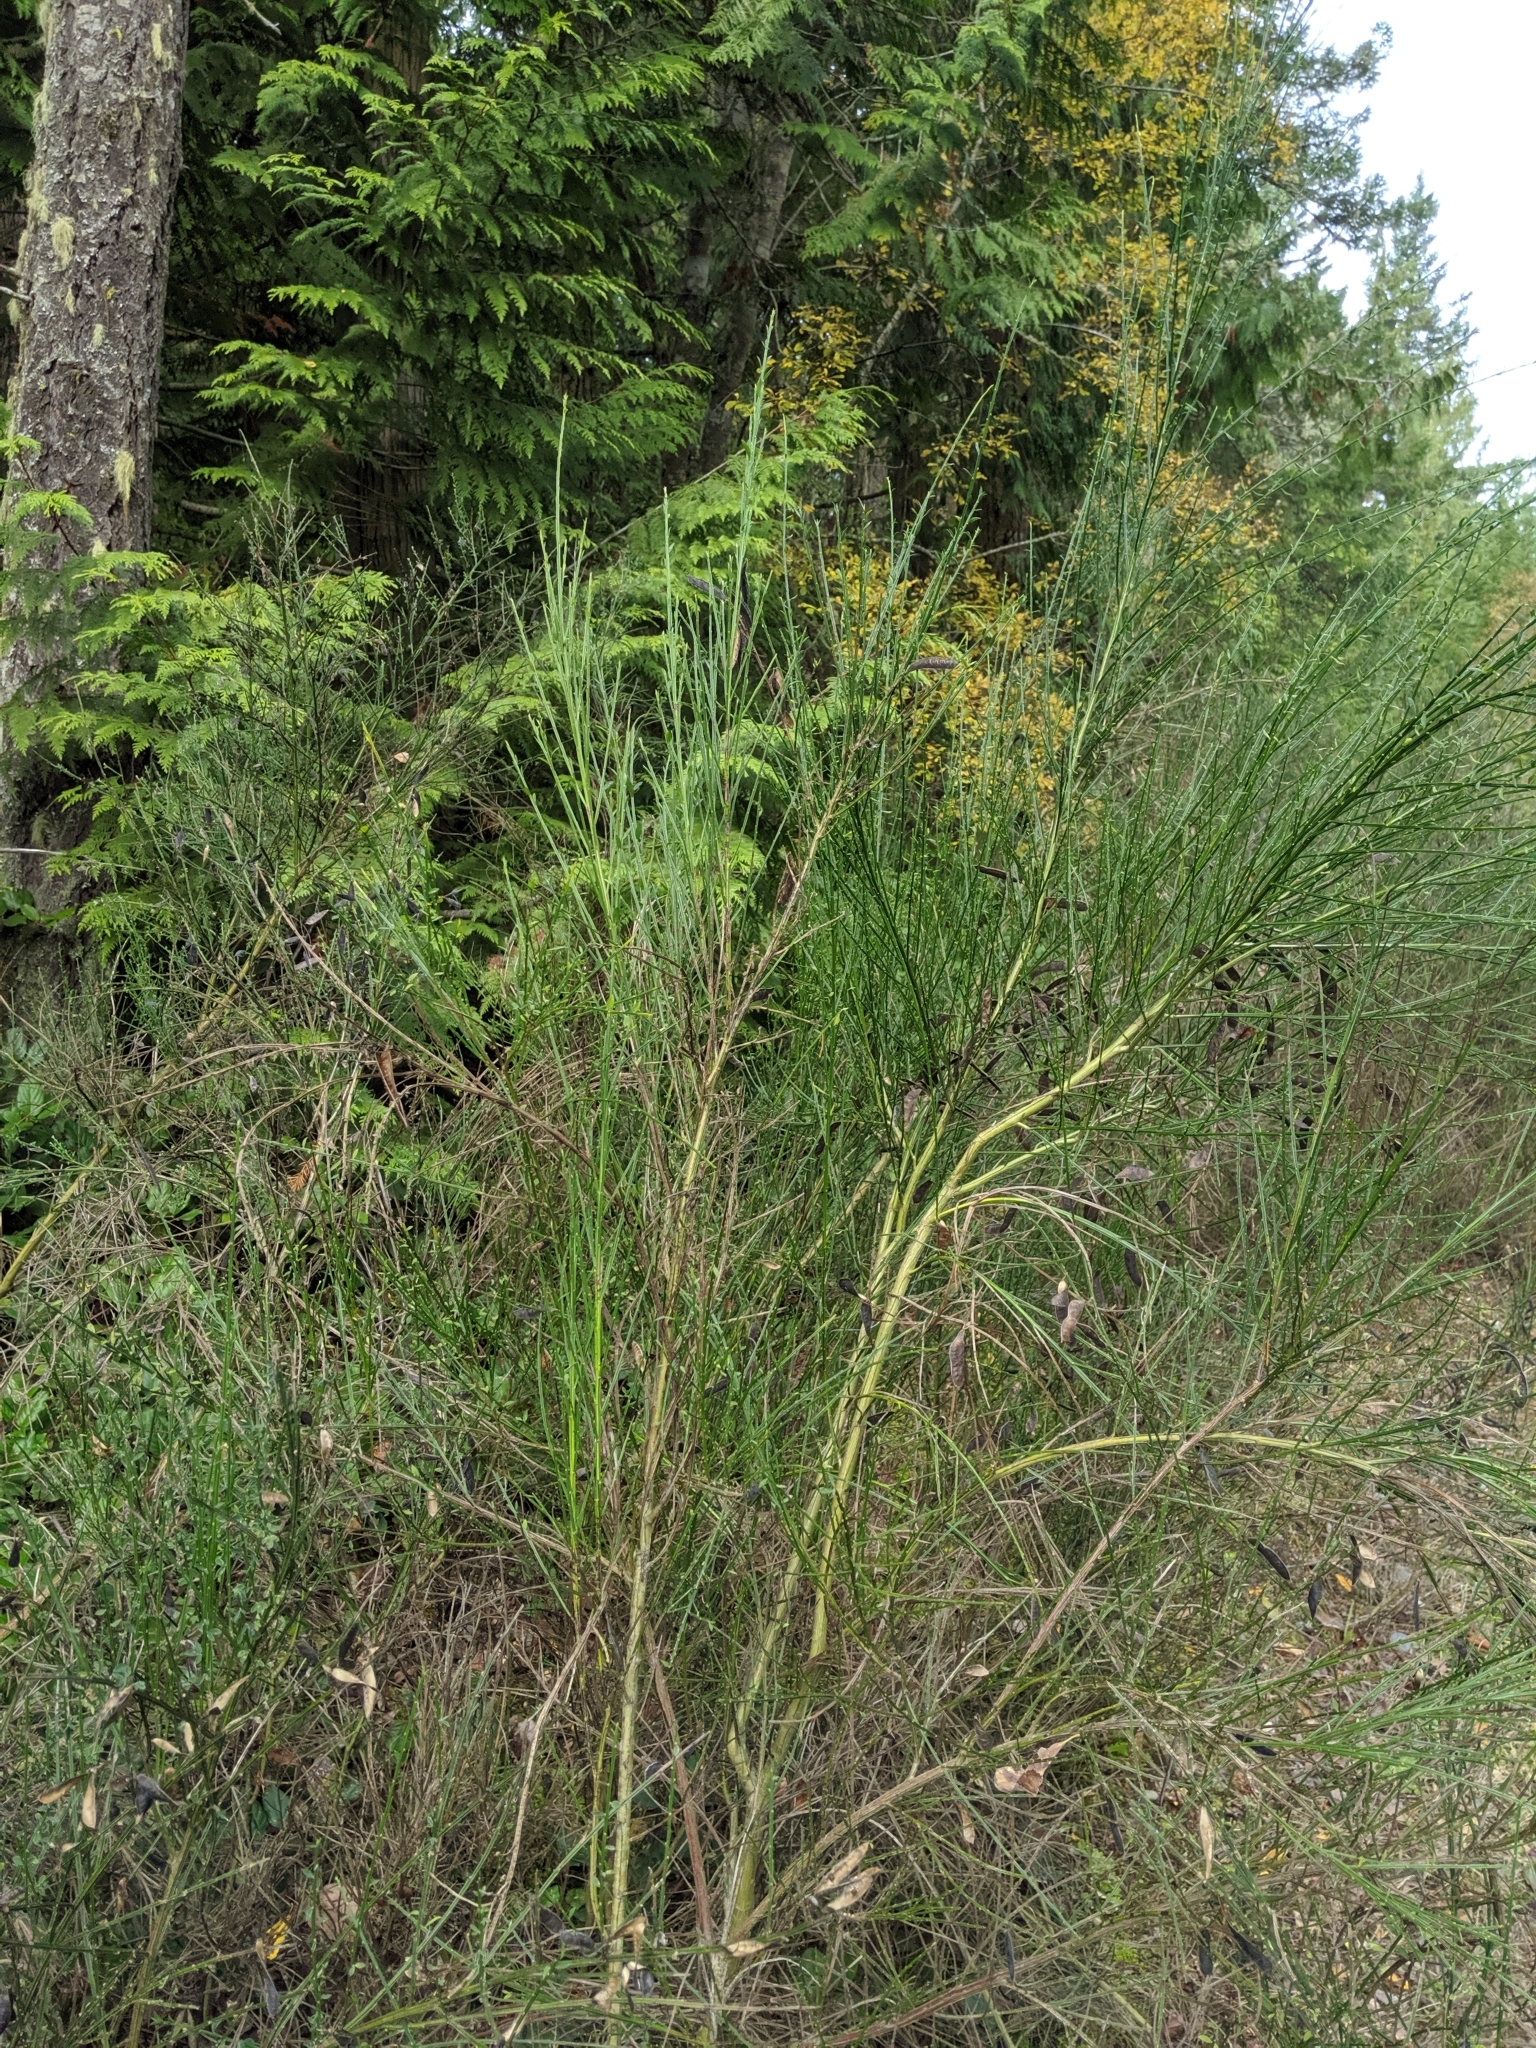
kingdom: Plantae
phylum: Tracheophyta
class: Magnoliopsida
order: Fabales
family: Fabaceae
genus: Cytisus
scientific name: Cytisus scoparius
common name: Scotch broom
